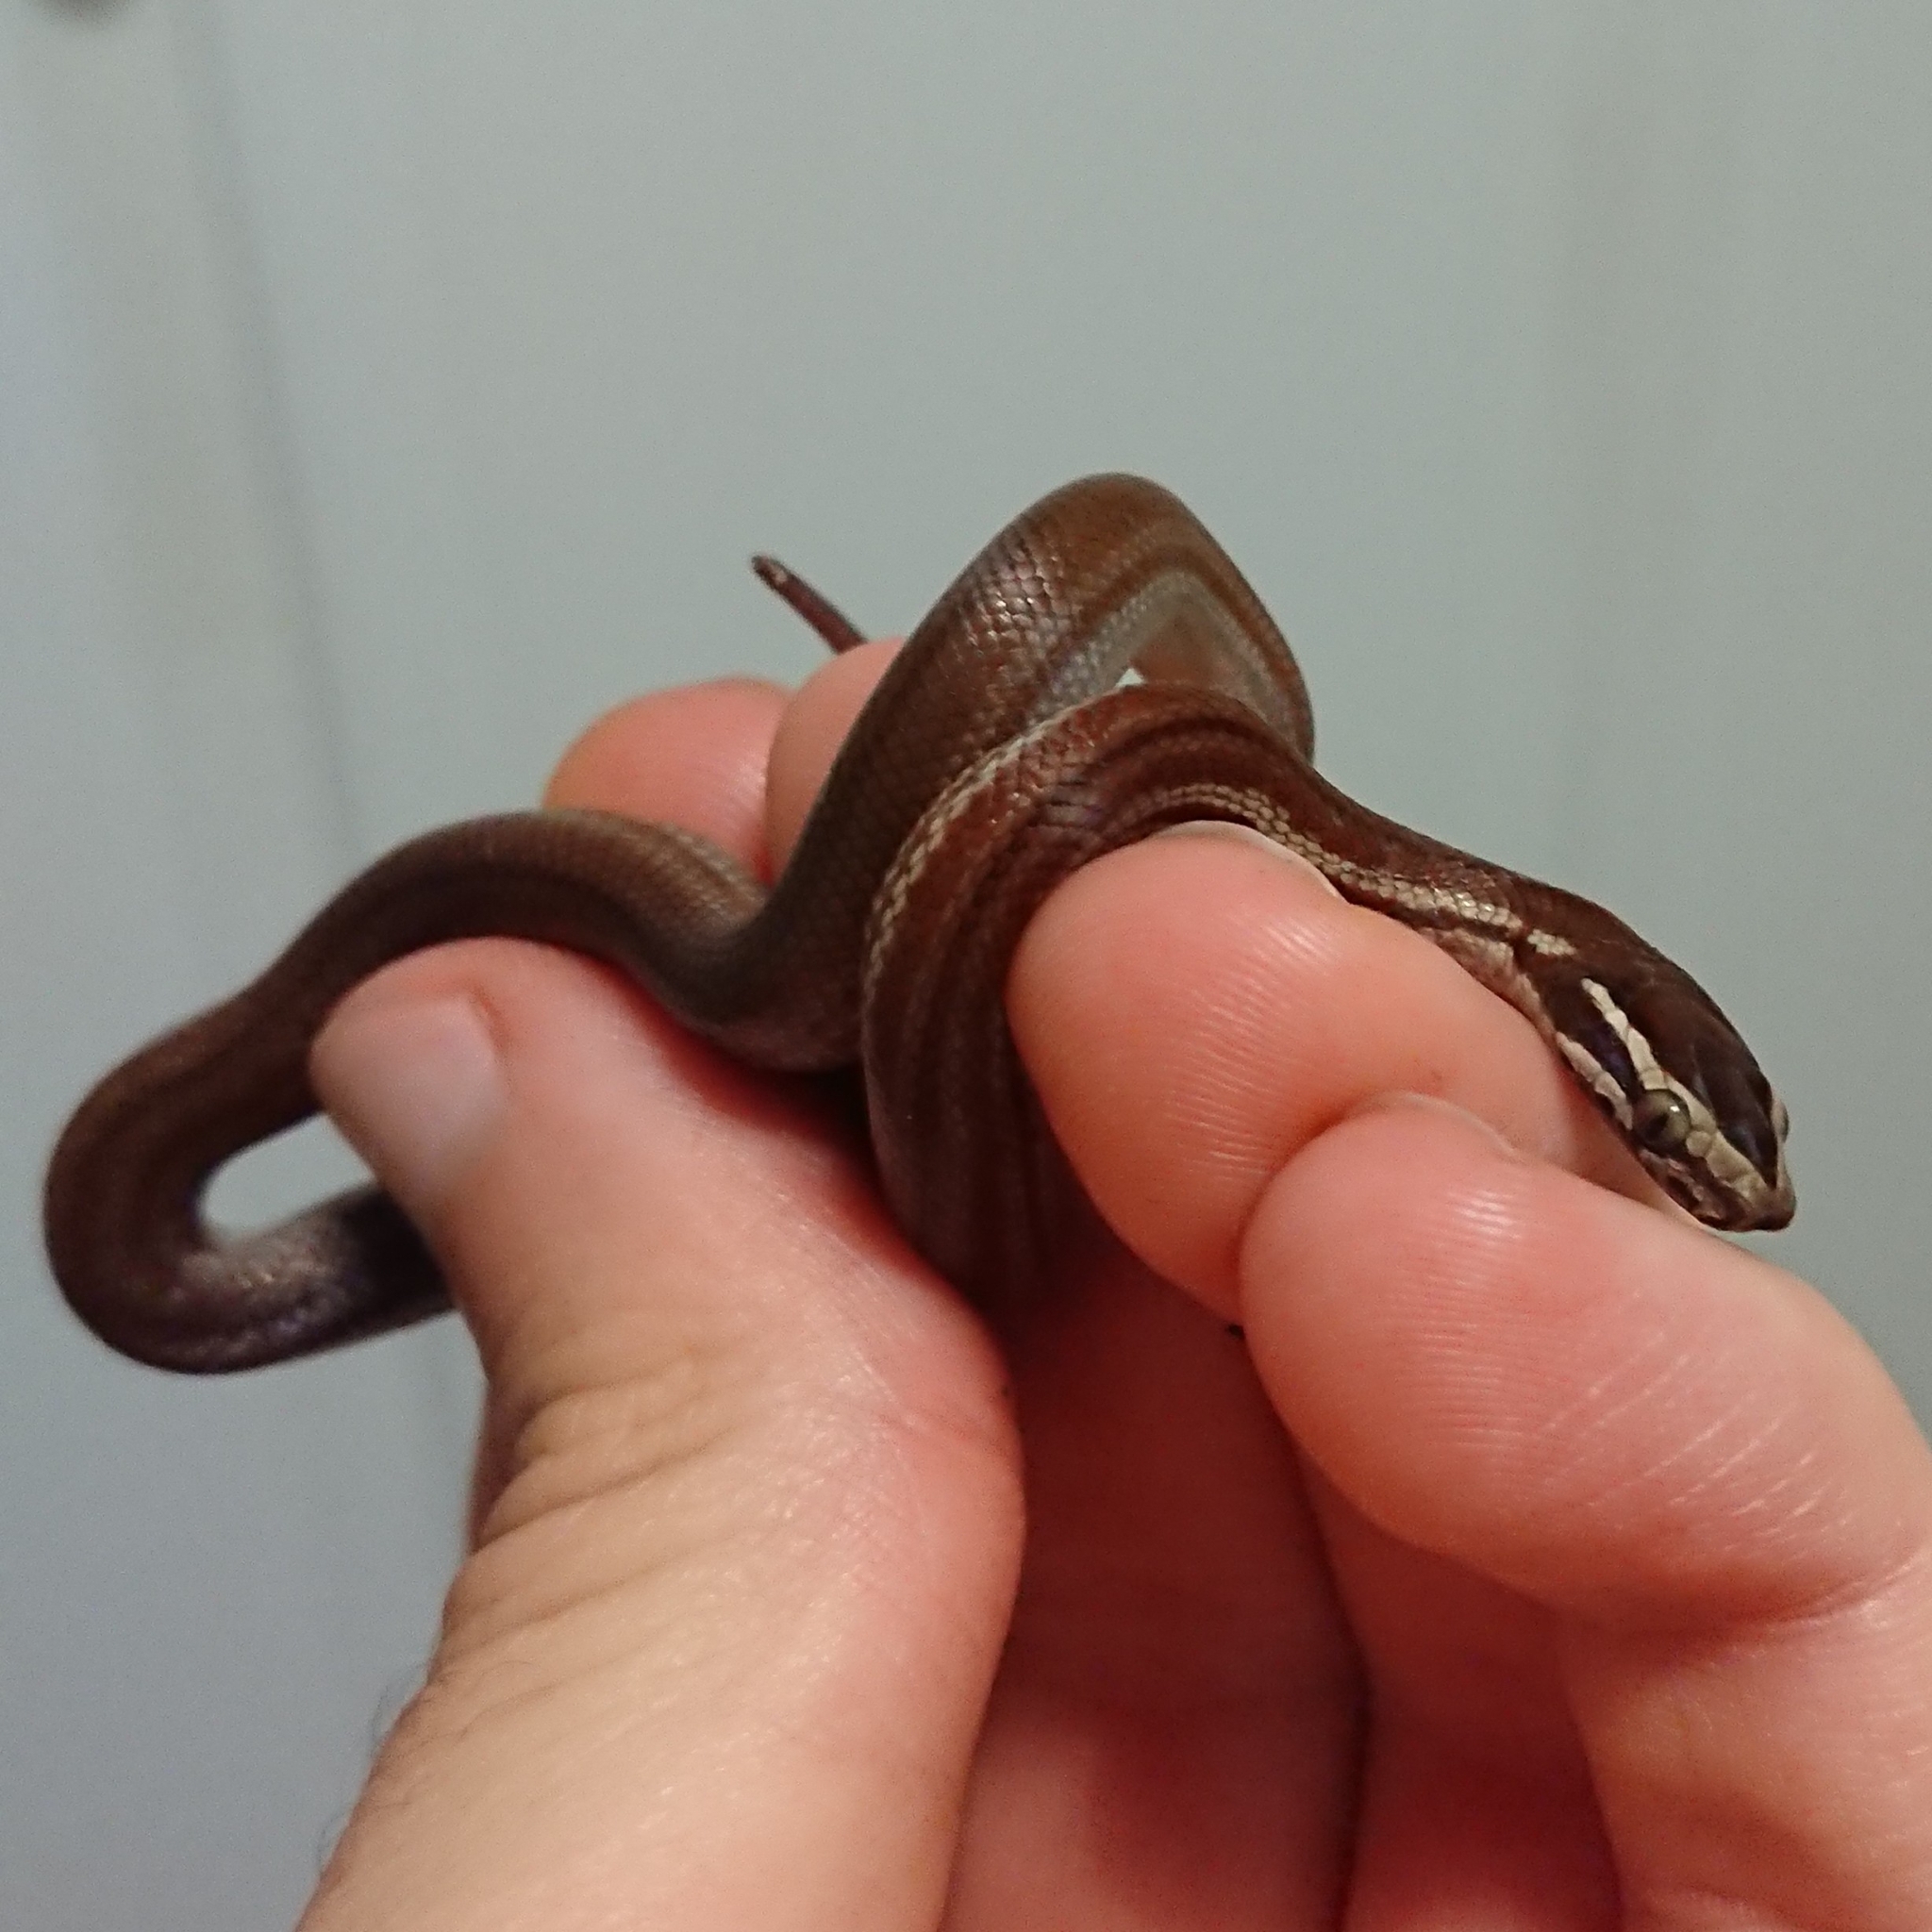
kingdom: Animalia
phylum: Chordata
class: Squamata
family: Lamprophiidae
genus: Boaedon
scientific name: Boaedon capensis
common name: Brown house snake
